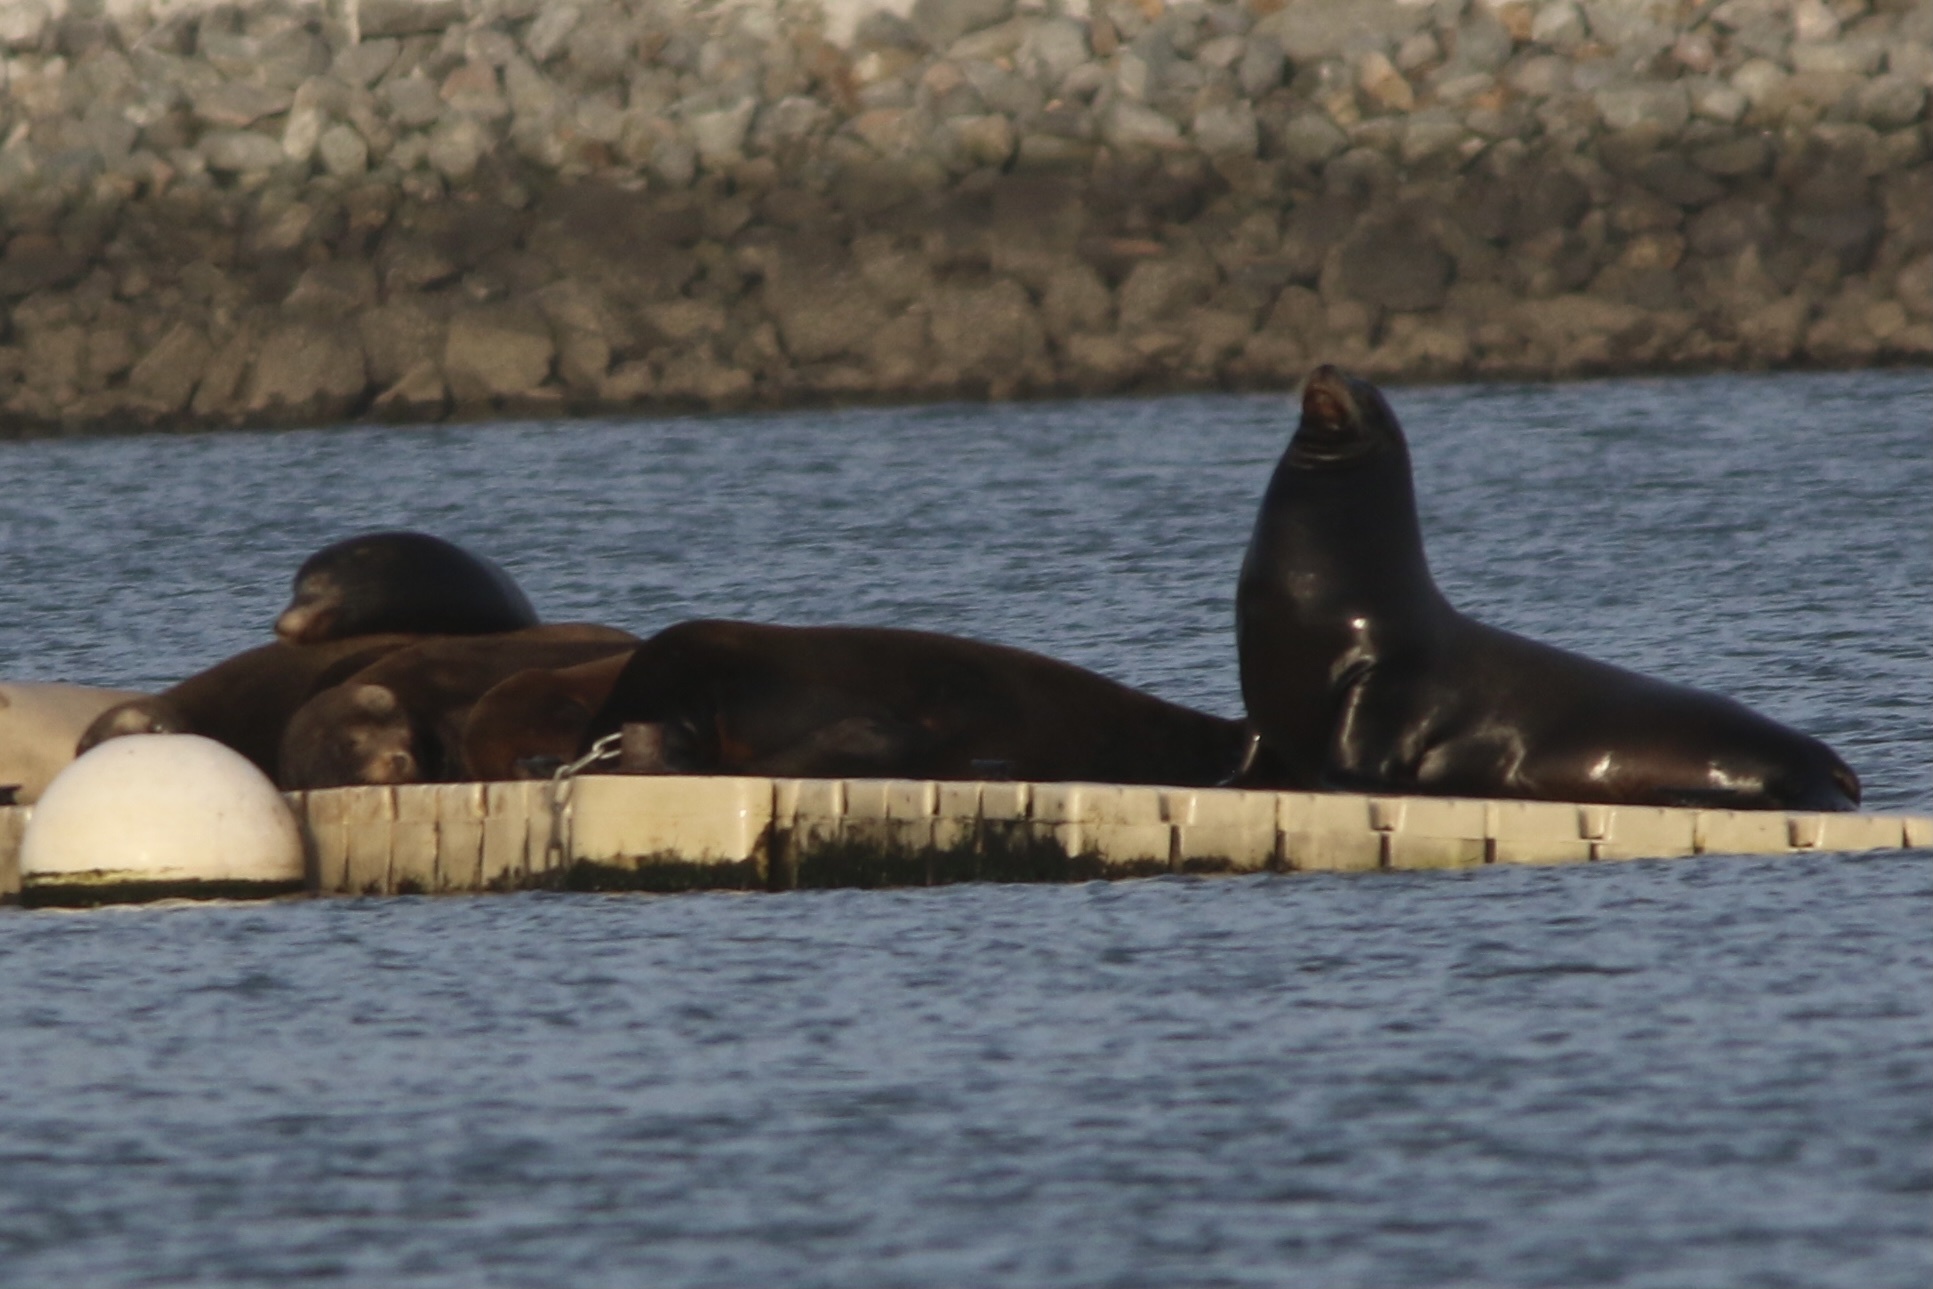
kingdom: Animalia
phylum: Chordata
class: Mammalia
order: Carnivora
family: Otariidae
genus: Zalophus
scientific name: Zalophus californianus
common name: California sea lion
